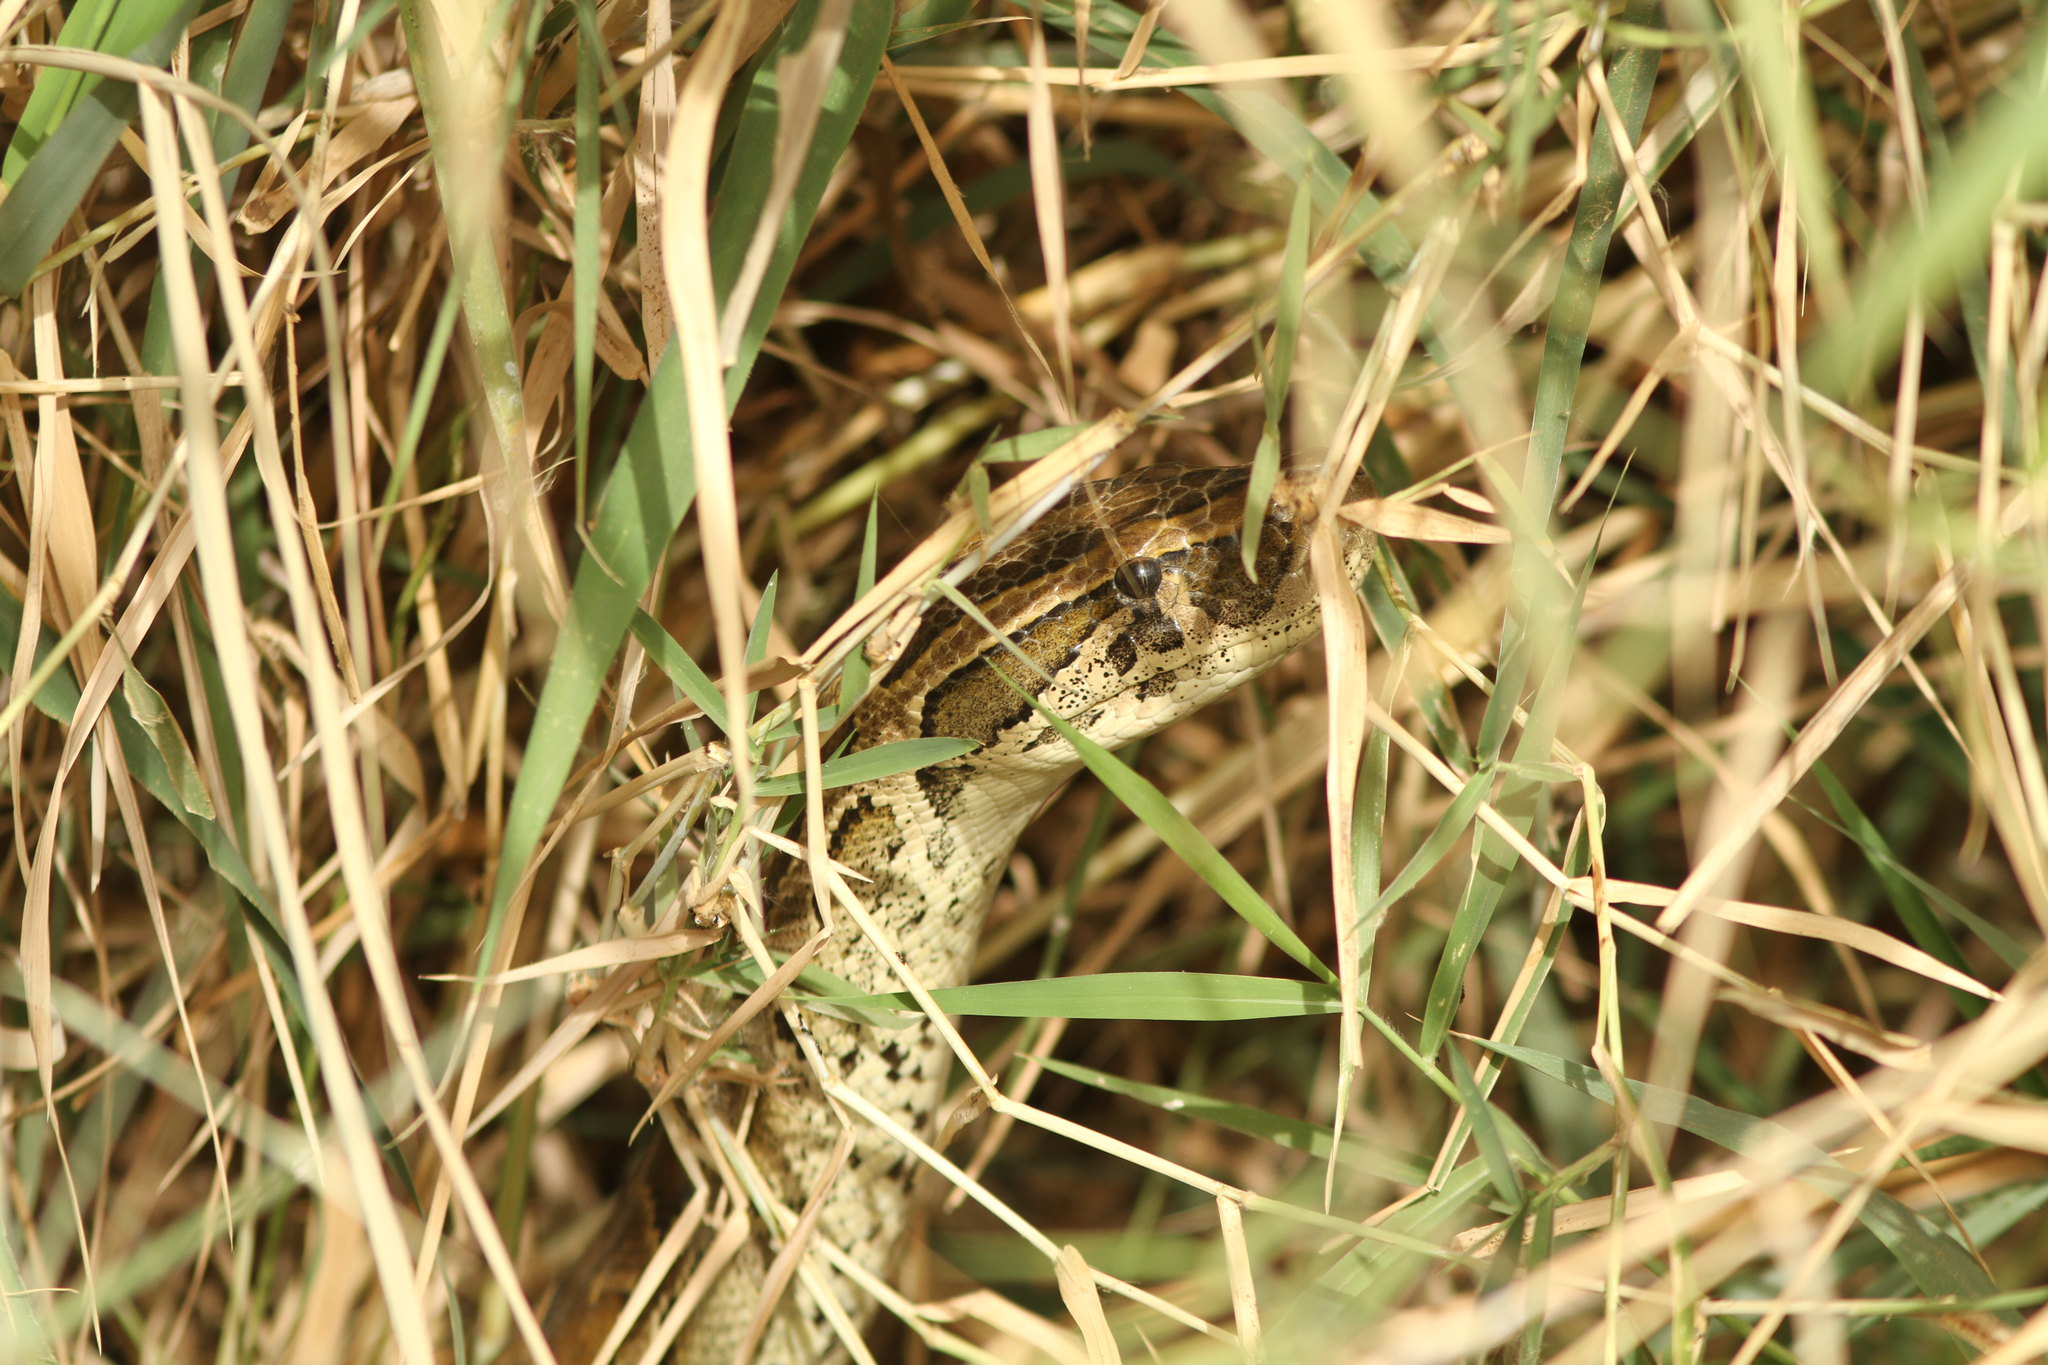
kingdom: Animalia
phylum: Chordata
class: Squamata
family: Pythonidae
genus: Python
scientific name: Python sebae
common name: African rock python
